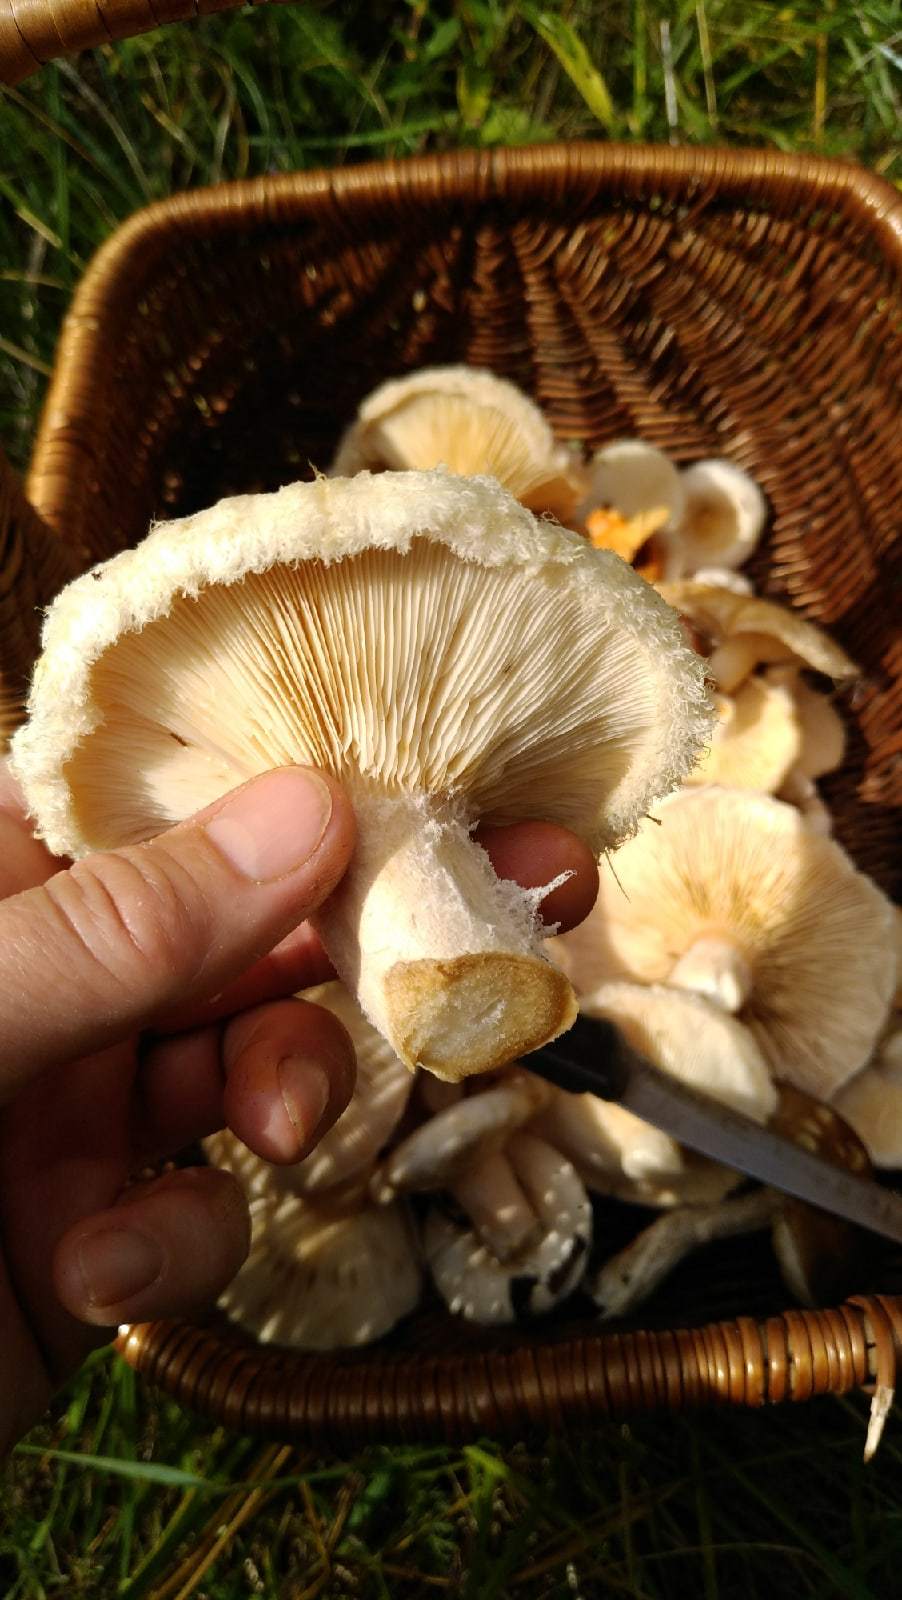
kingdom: Fungi
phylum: Basidiomycota
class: Agaricomycetes
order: Russulales
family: Russulaceae
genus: Lactarius
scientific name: Lactarius pubescens
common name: Bearded milkcap
